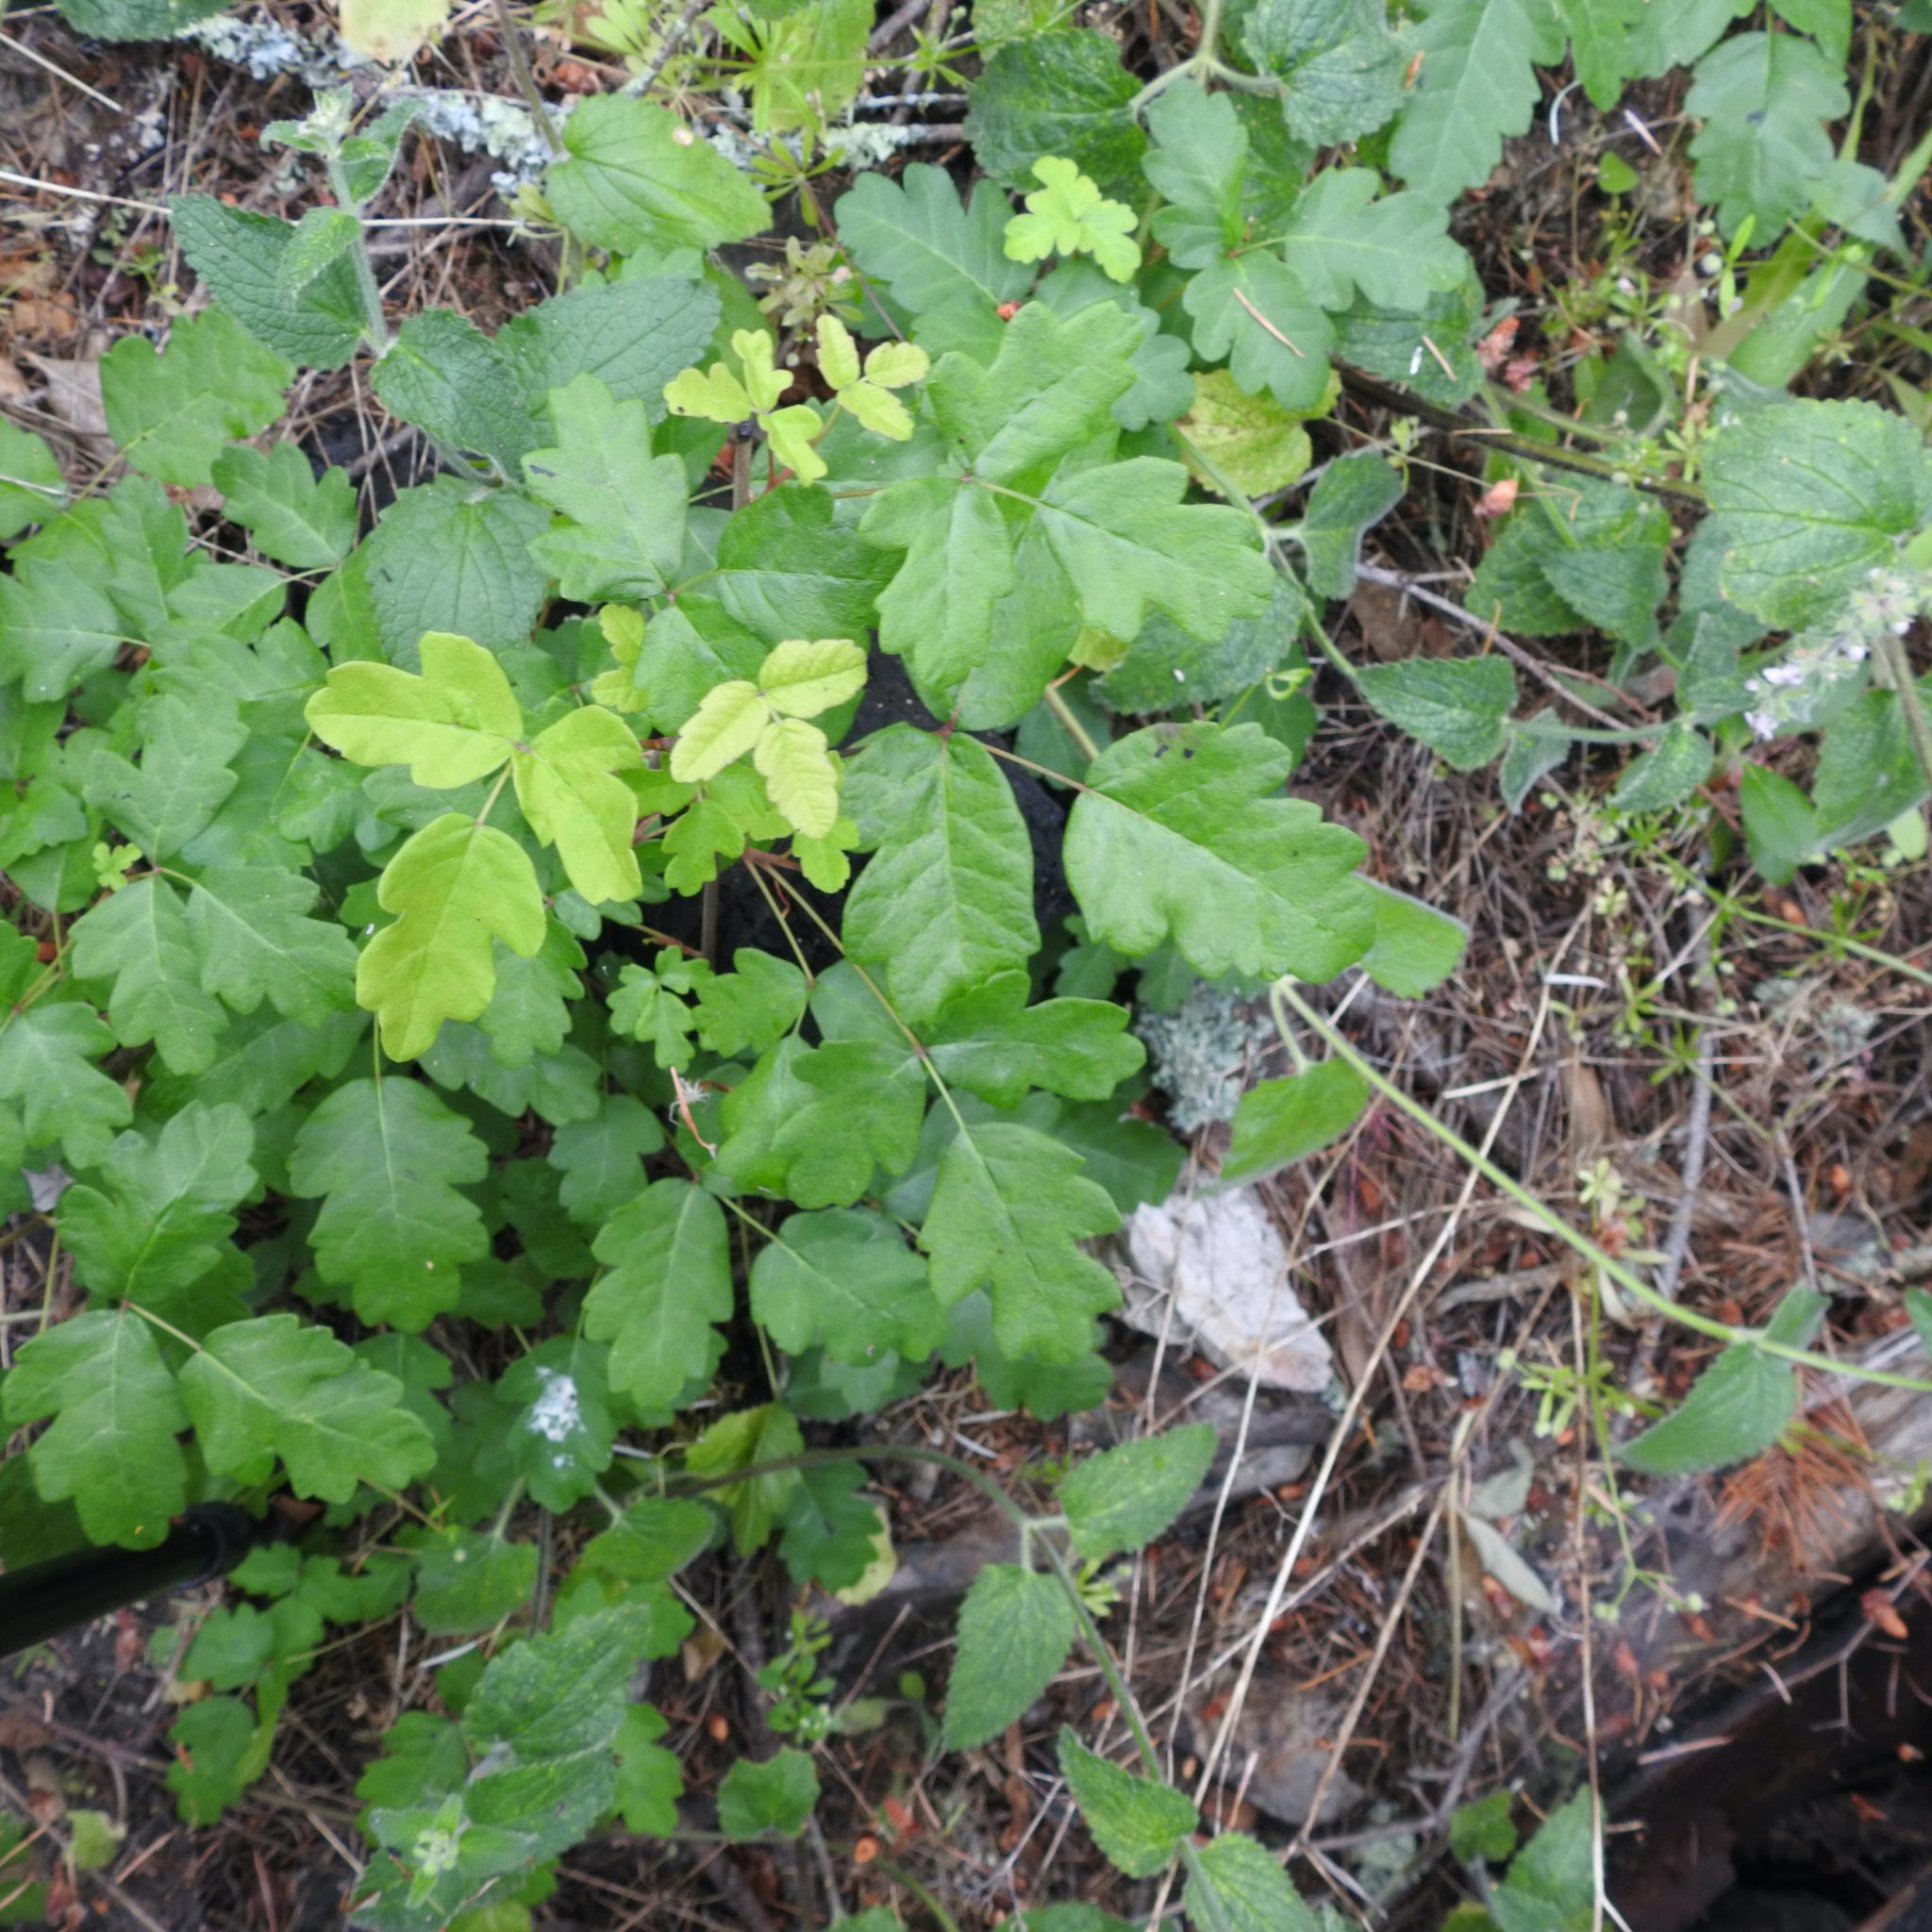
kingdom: Plantae
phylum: Tracheophyta
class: Magnoliopsida
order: Sapindales
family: Anacardiaceae
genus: Toxicodendron
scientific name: Toxicodendron diversilobum
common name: Pacific poison-oak
